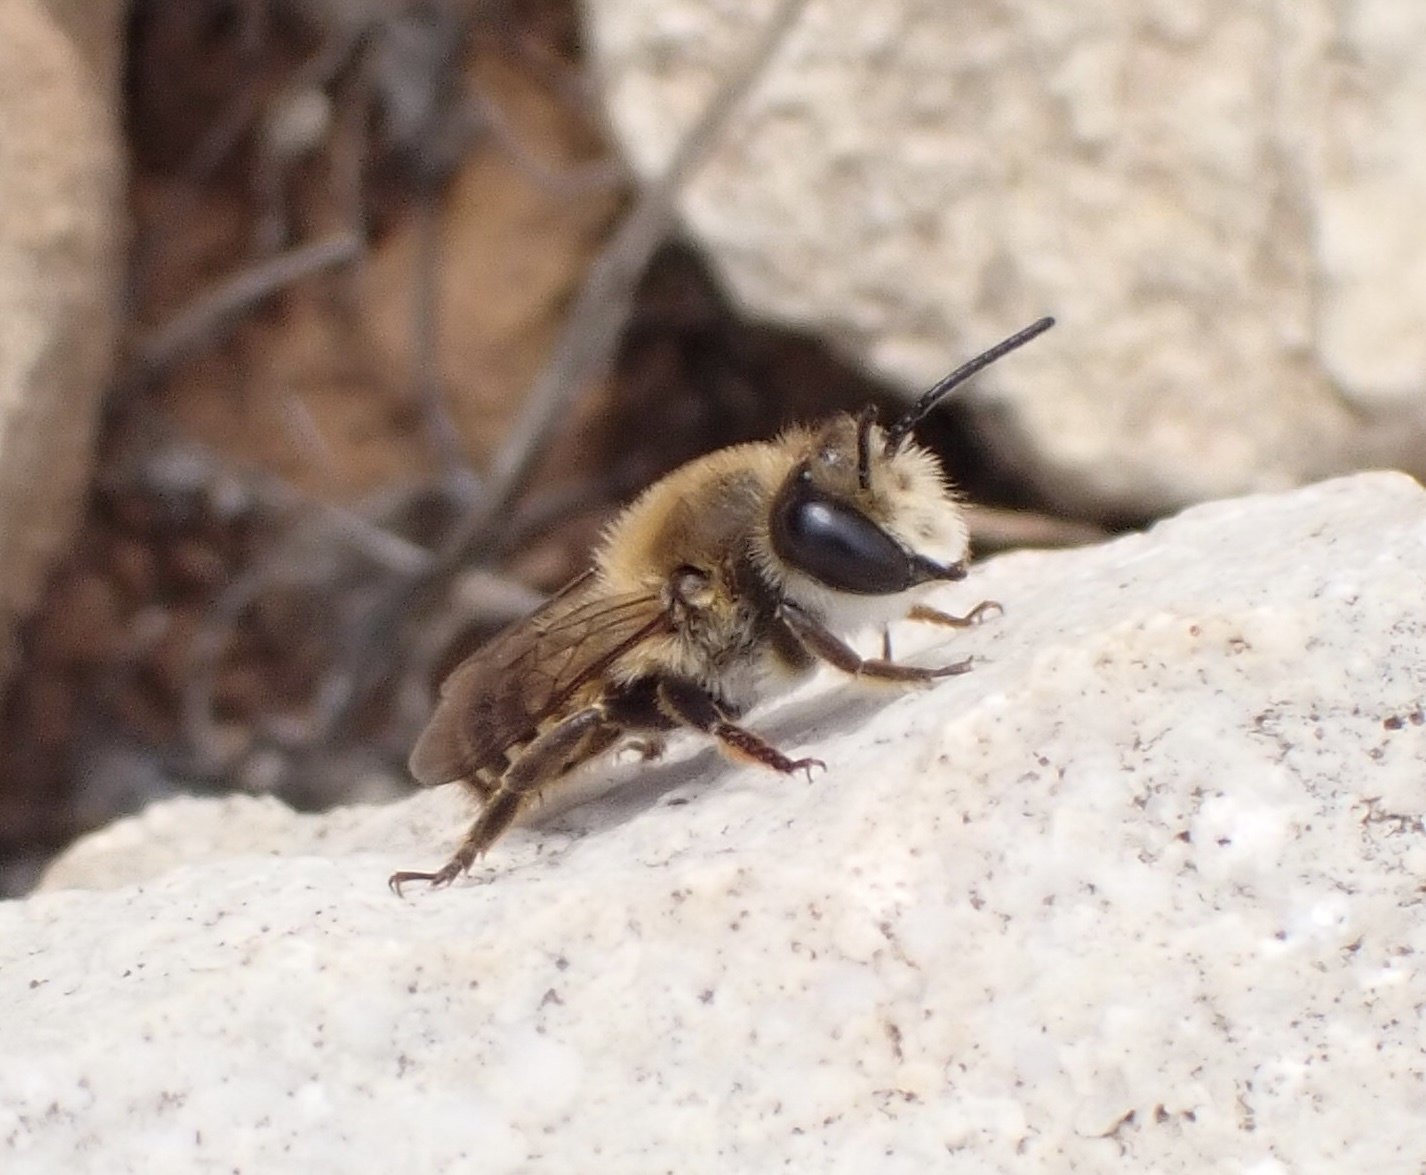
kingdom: Animalia
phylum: Arthropoda
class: Insecta
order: Hymenoptera
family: Megachilidae
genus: Megachile
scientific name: Megachile roeweri
